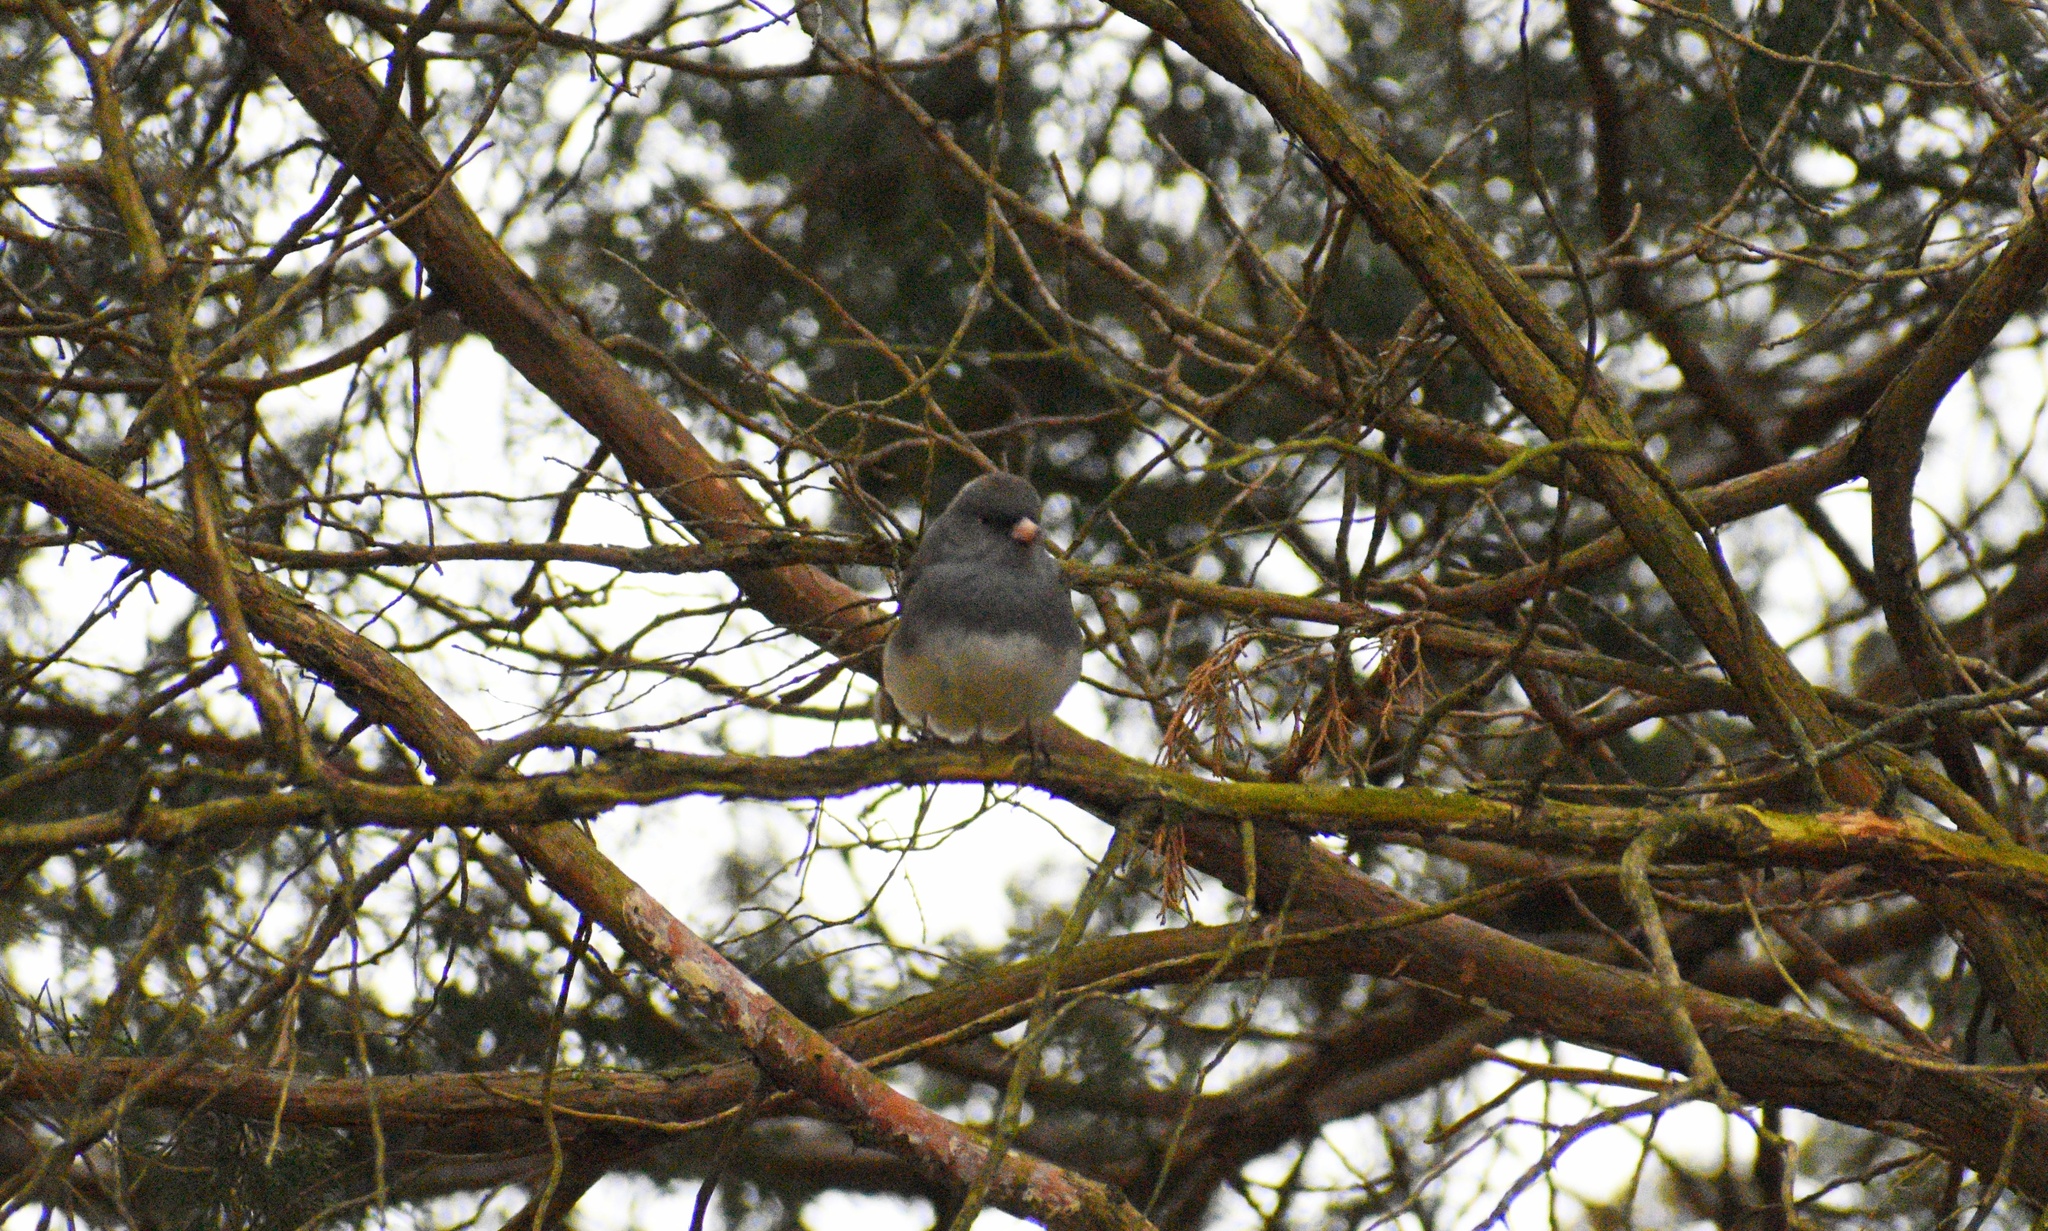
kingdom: Animalia
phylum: Chordata
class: Aves
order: Passeriformes
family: Passerellidae
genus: Junco
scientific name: Junco hyemalis
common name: Dark-eyed junco
